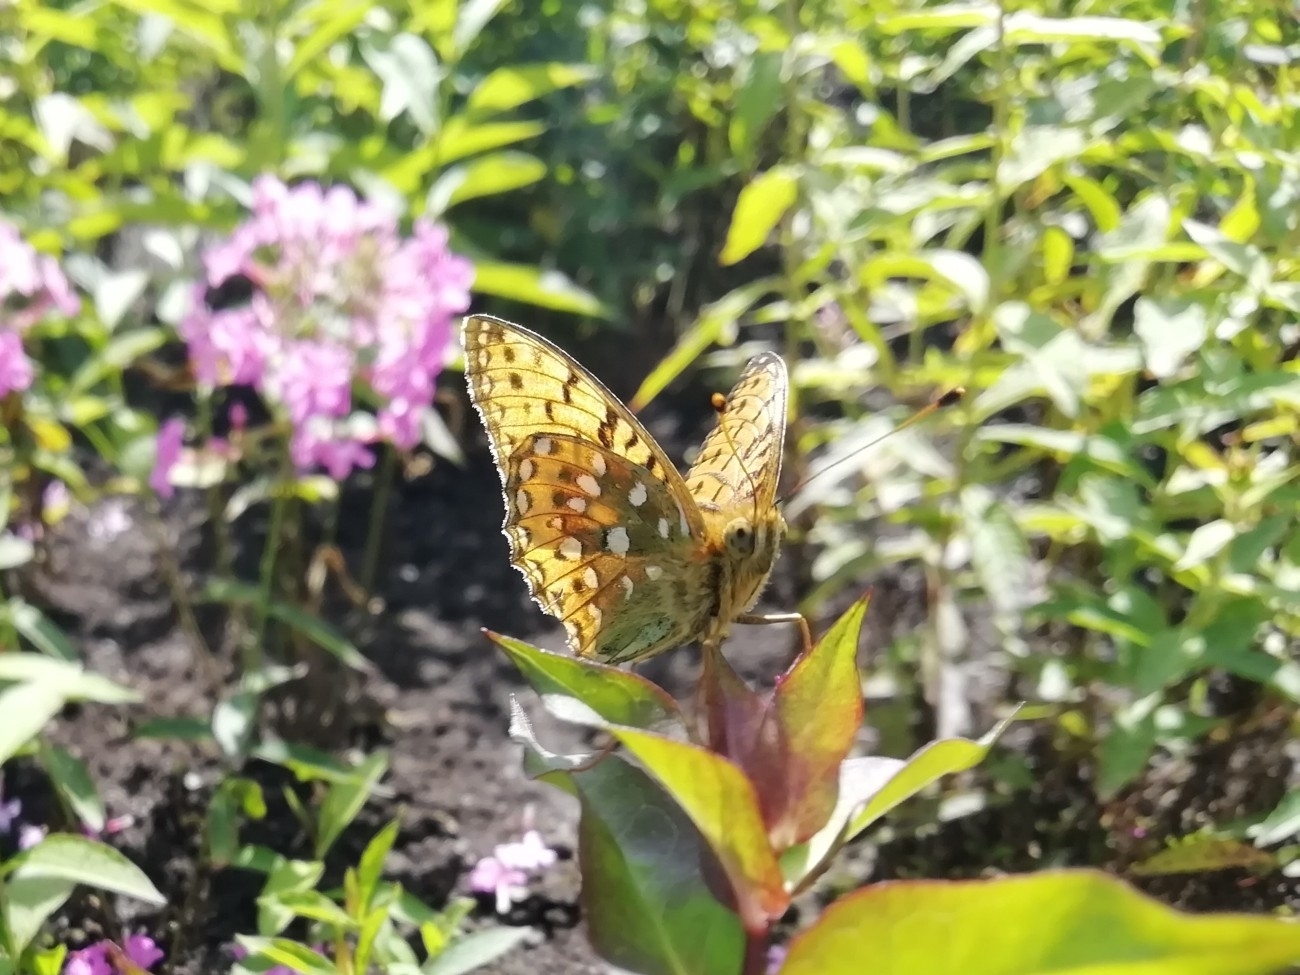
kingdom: Animalia
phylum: Arthropoda
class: Insecta
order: Lepidoptera
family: Nymphalidae
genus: Speyeria
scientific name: Speyeria aglaja
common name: Dark green fritillary
